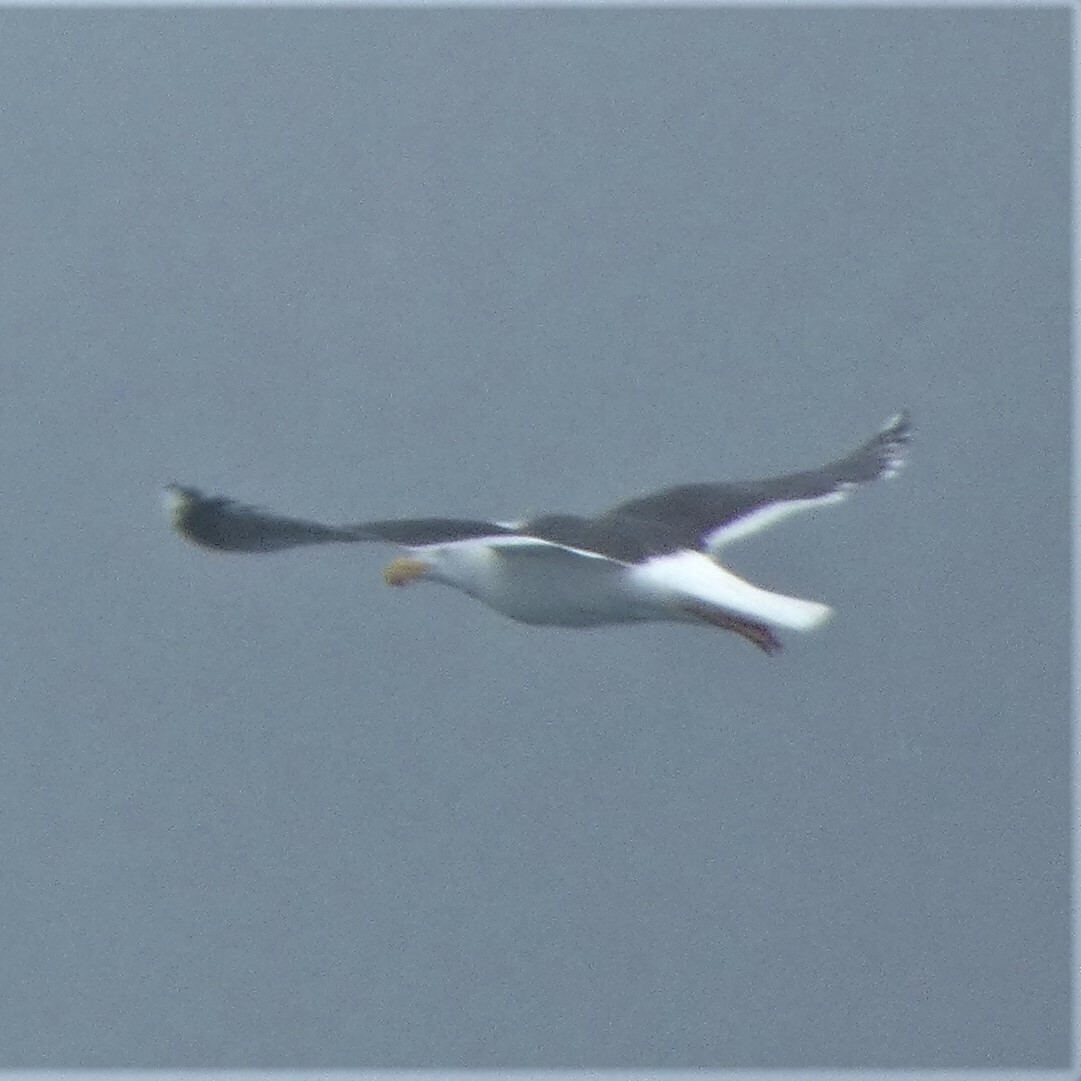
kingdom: Animalia
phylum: Chordata
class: Aves
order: Charadriiformes
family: Laridae
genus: Larus
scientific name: Larus marinus
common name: Great black-backed gull
